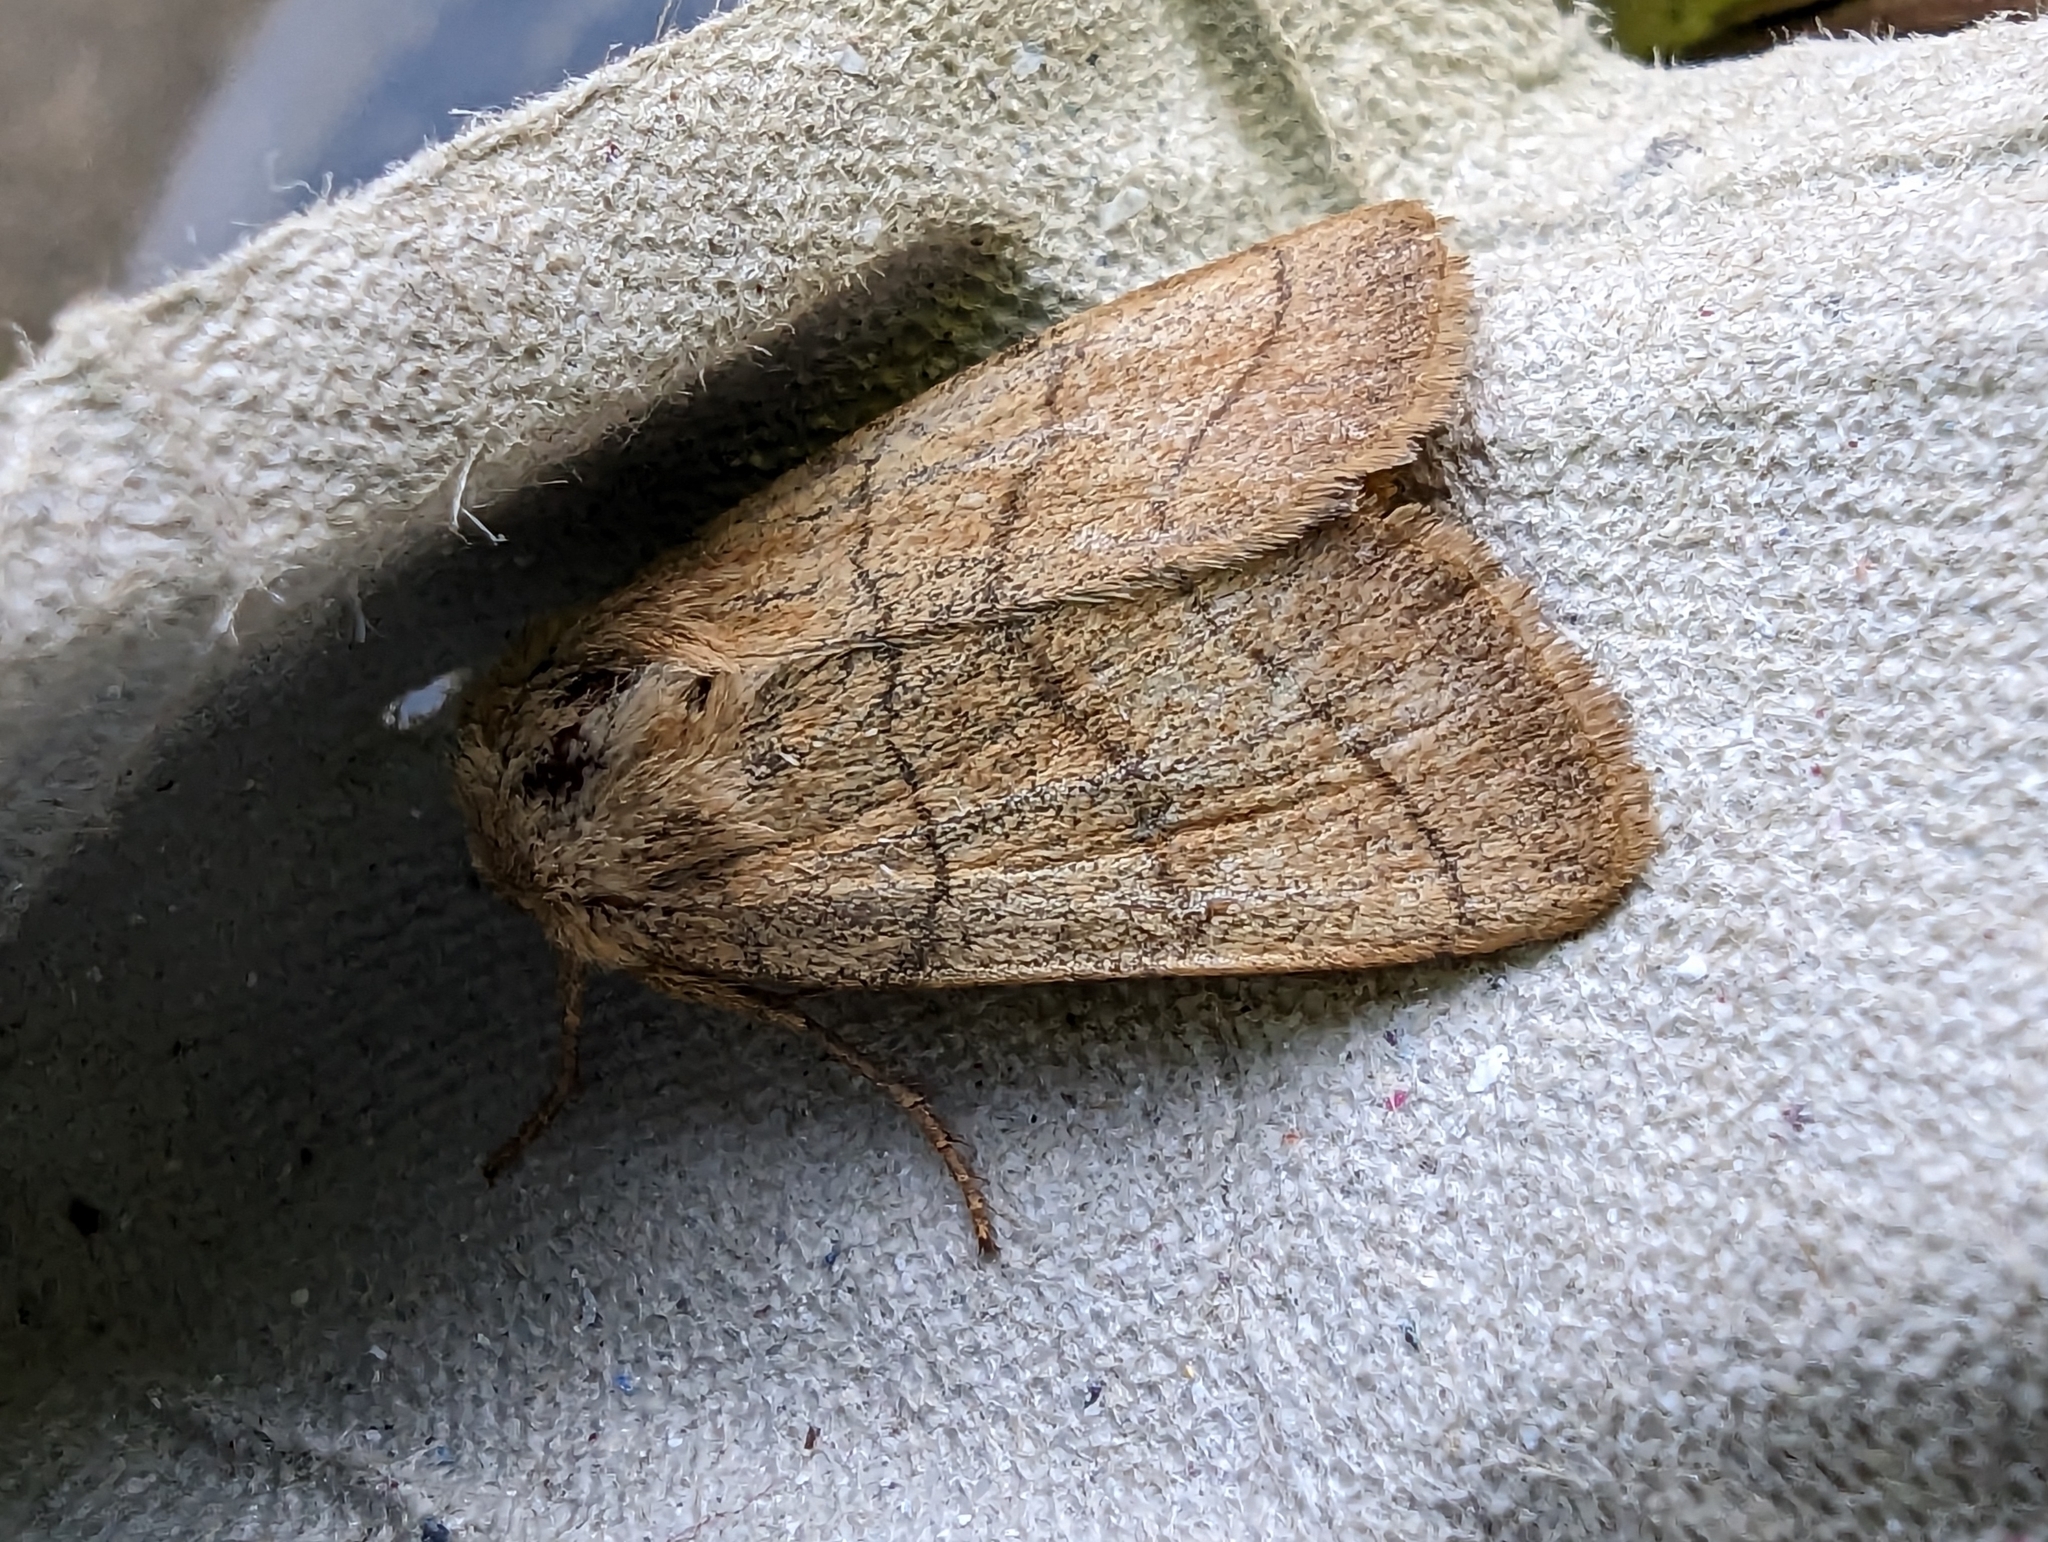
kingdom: Animalia
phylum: Arthropoda
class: Insecta
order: Lepidoptera
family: Noctuidae
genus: Charanyca
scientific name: Charanyca trigrammica
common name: Treble lines
